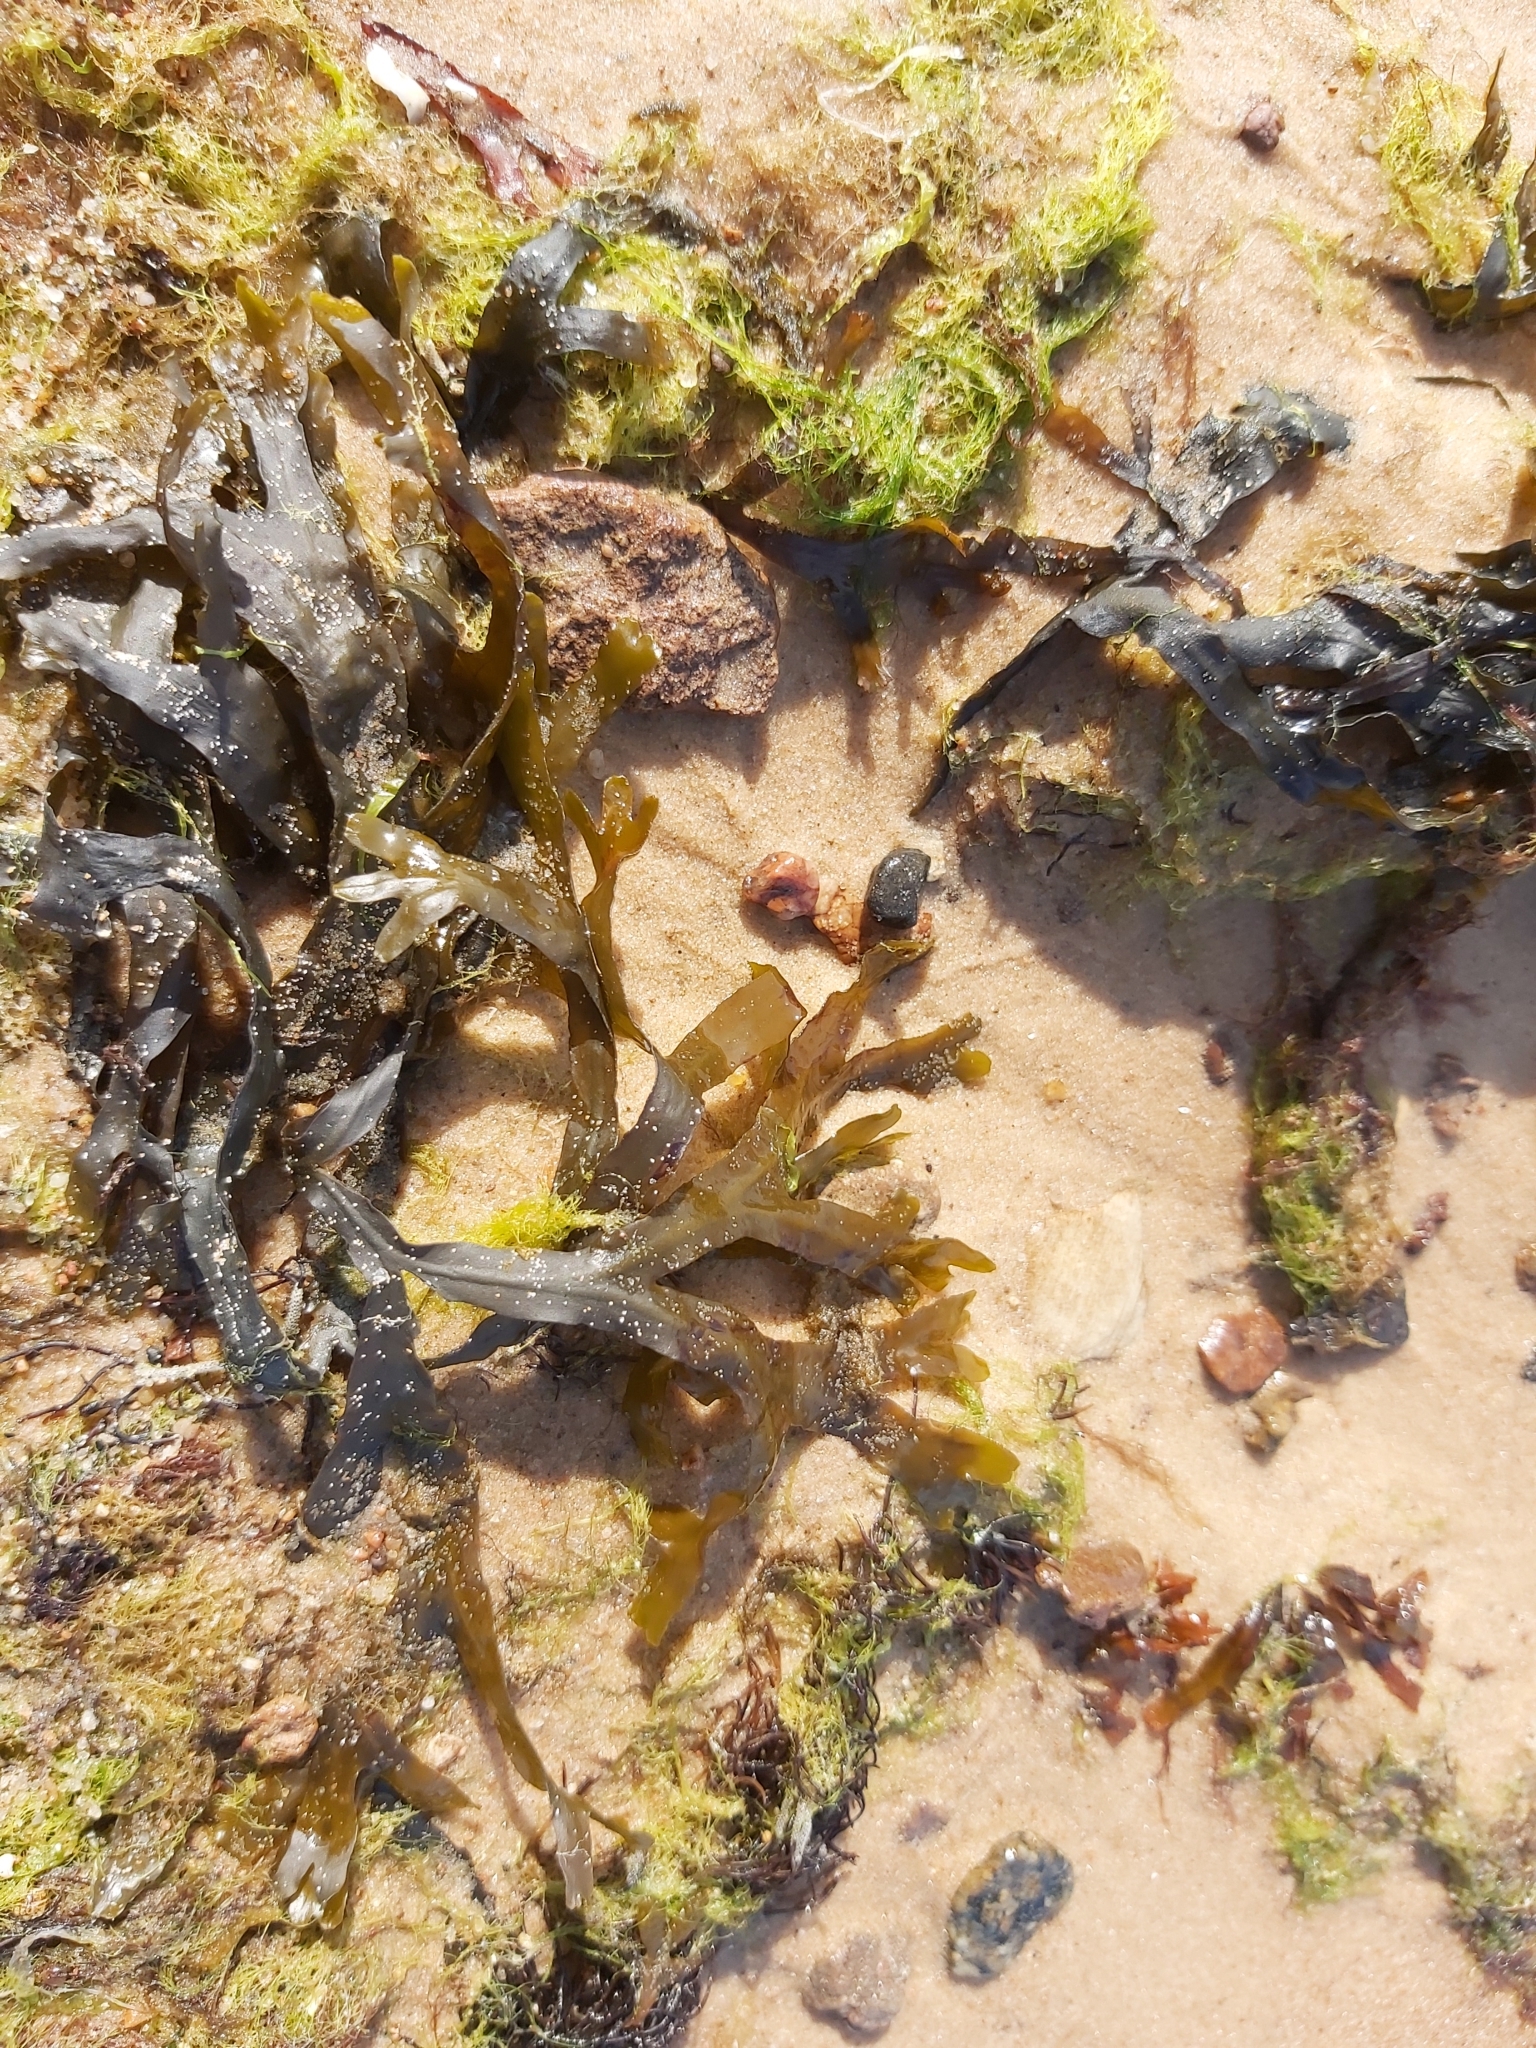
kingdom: Chromista
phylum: Ochrophyta
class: Phaeophyceae
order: Fucales
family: Fucaceae
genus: Fucus
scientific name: Fucus vesiculosus
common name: Bladder wrack
